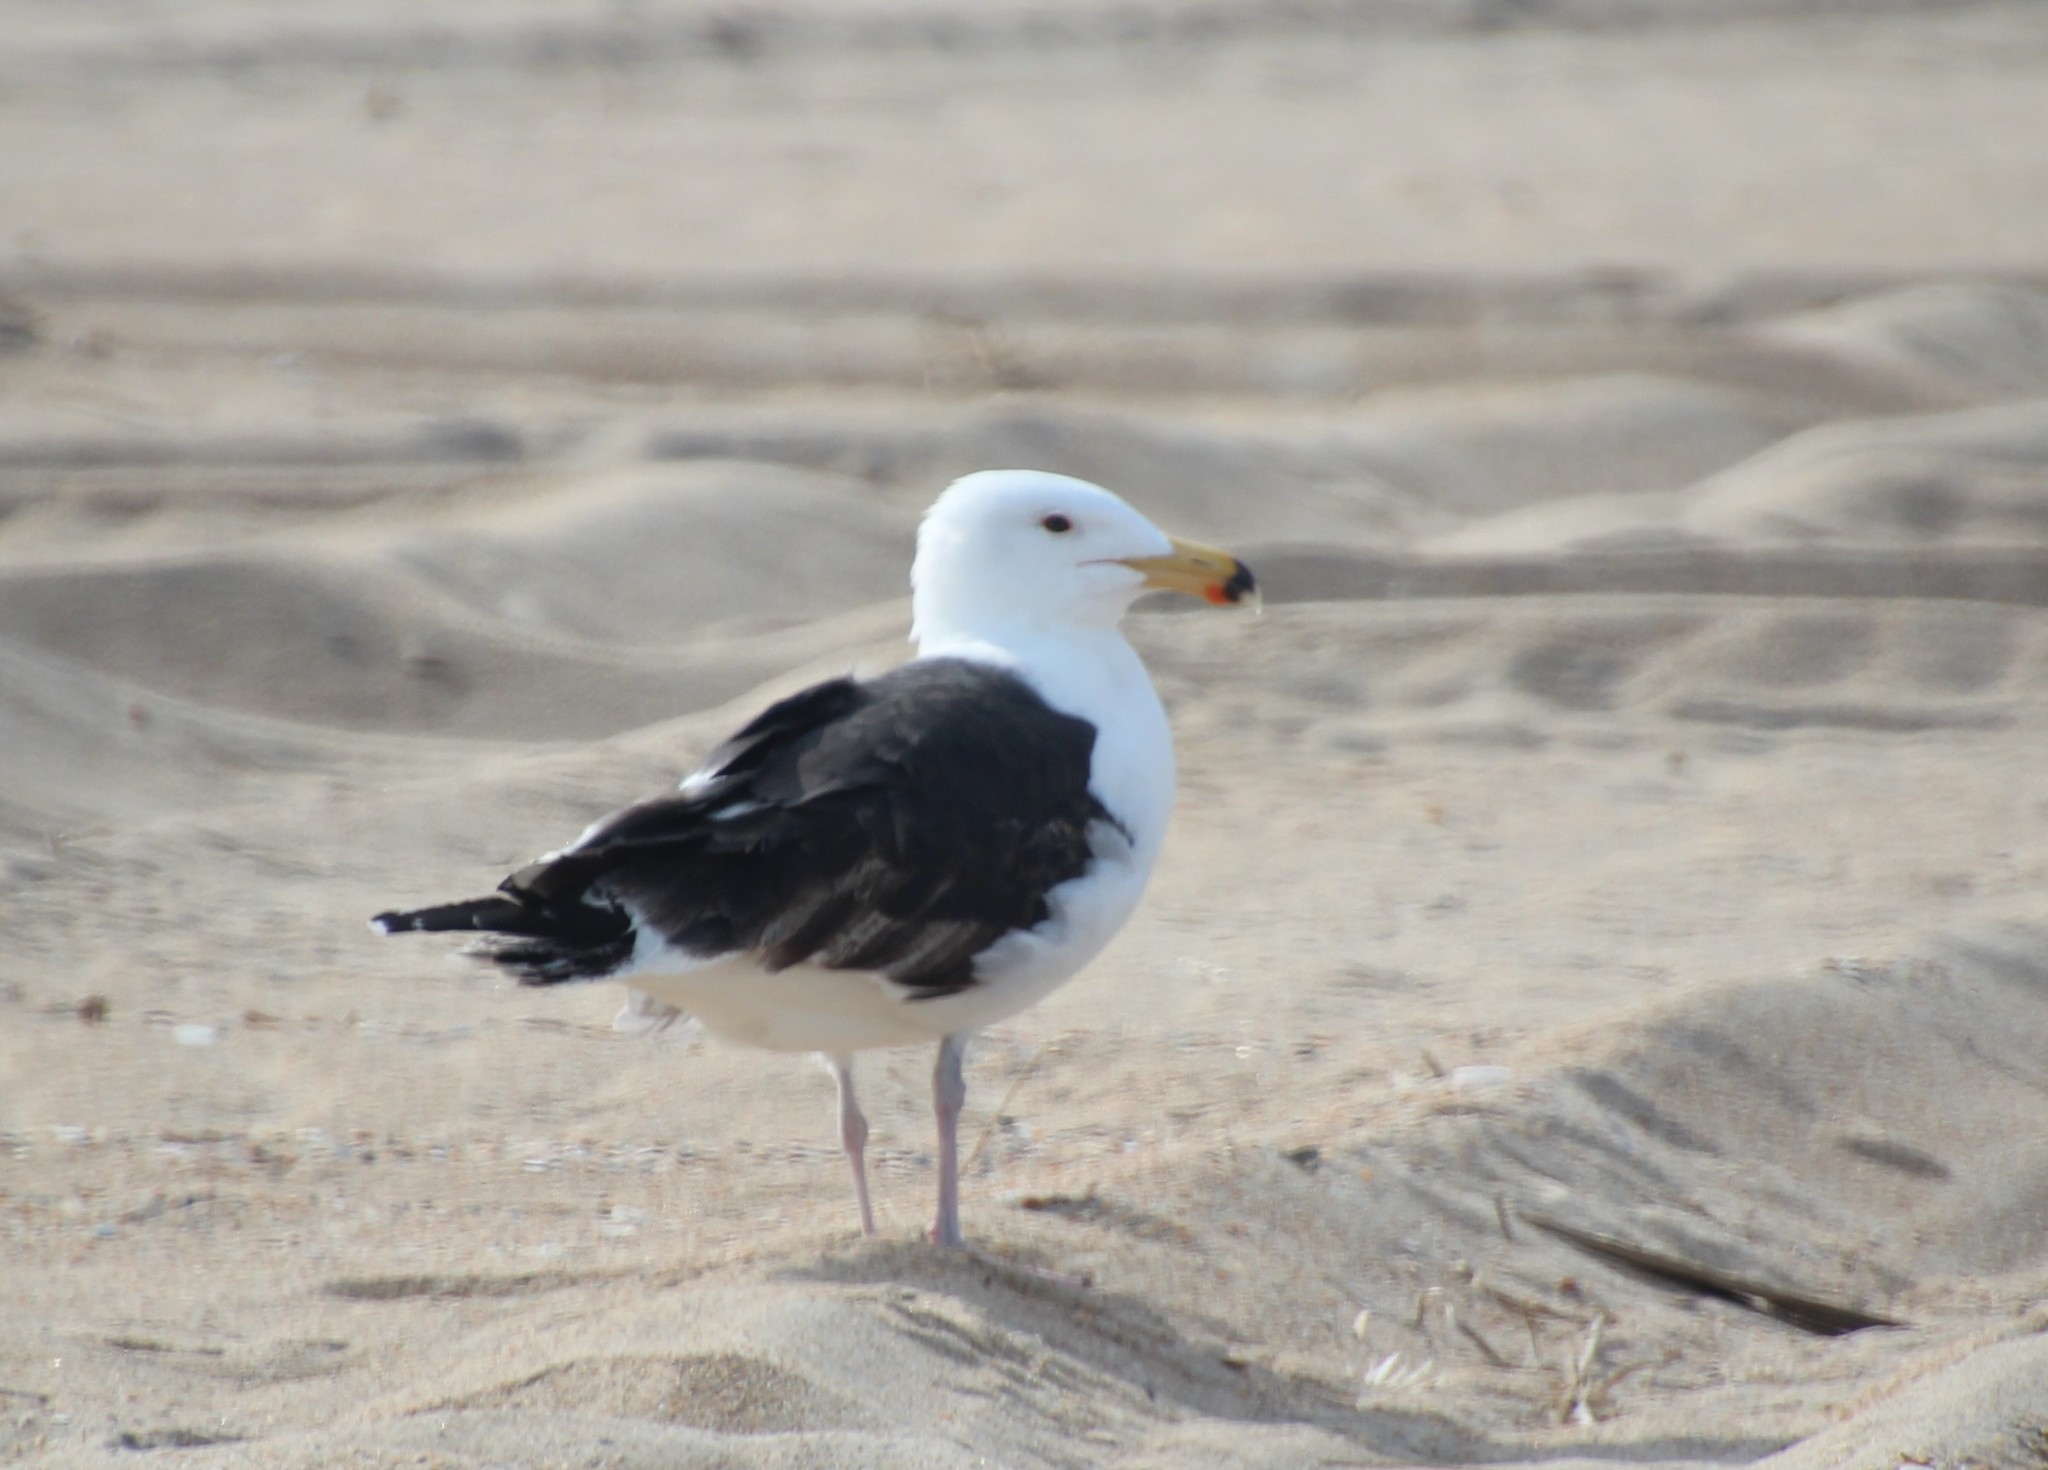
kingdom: Animalia
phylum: Chordata
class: Aves
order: Charadriiformes
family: Laridae
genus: Larus
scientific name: Larus marinus
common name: Great black-backed gull
